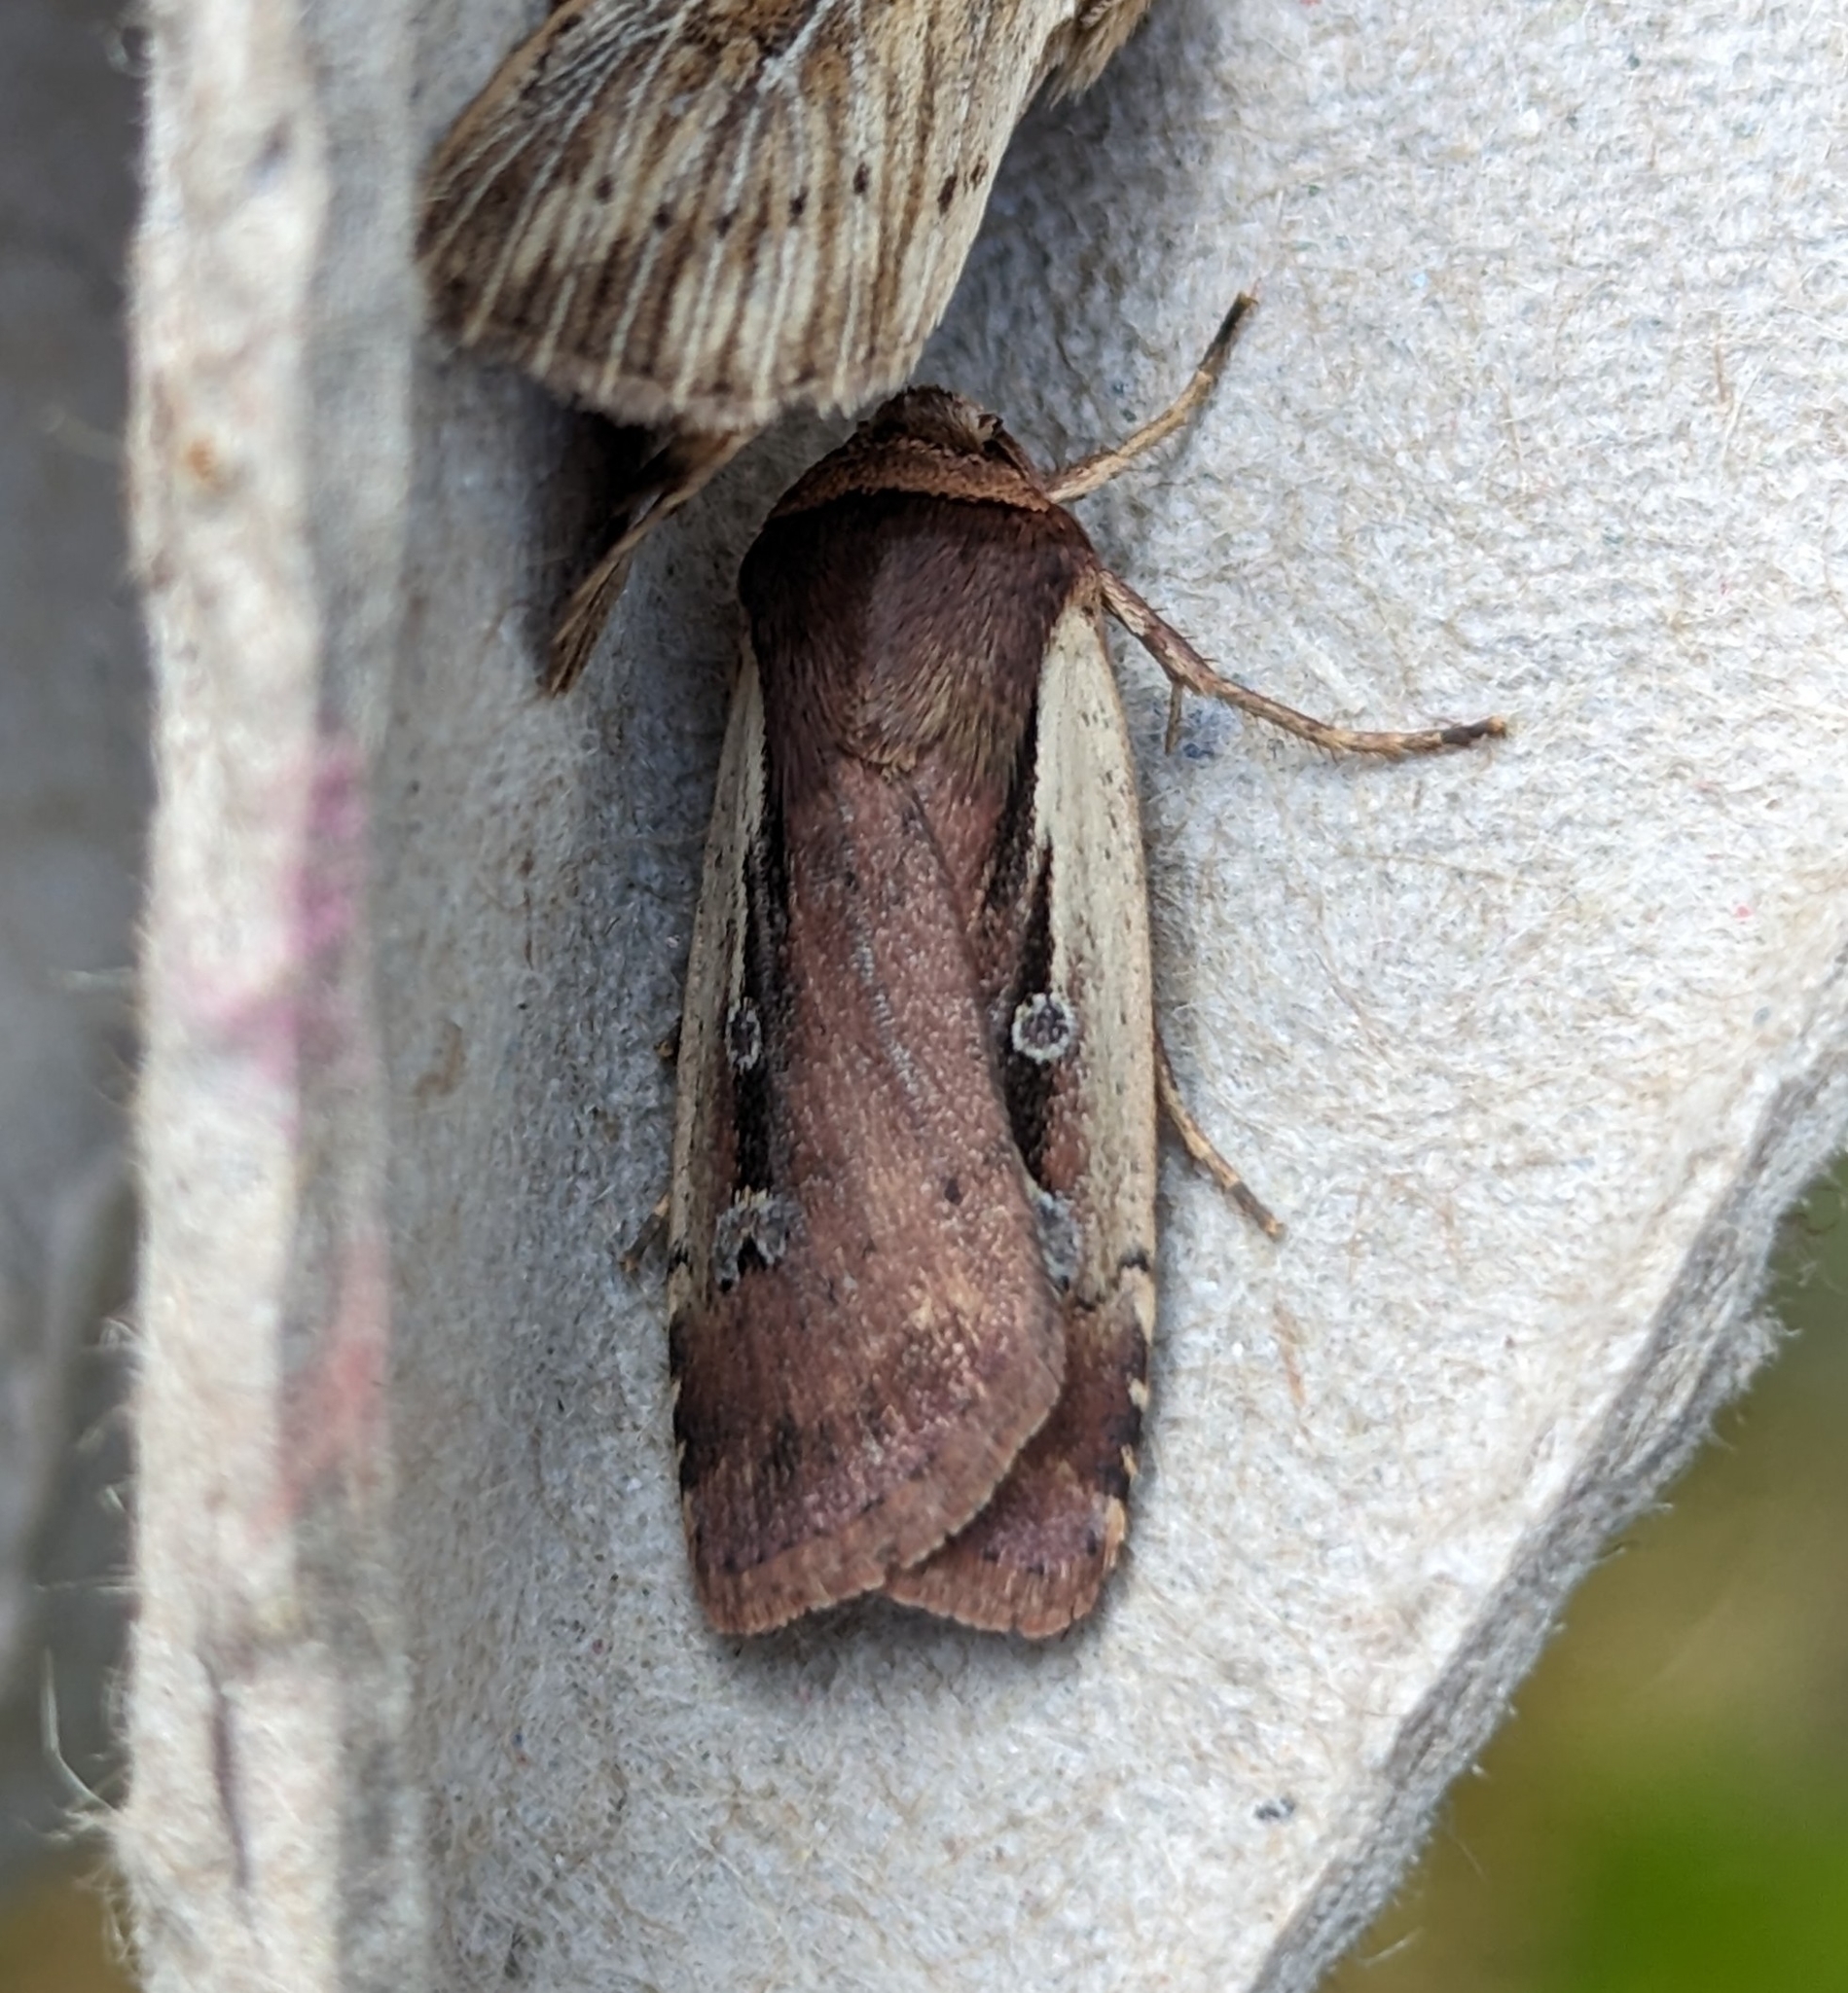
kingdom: Animalia
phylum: Arthropoda
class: Insecta
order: Lepidoptera
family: Noctuidae
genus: Ochropleura
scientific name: Ochropleura implecta
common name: Flame-shouldered dart
